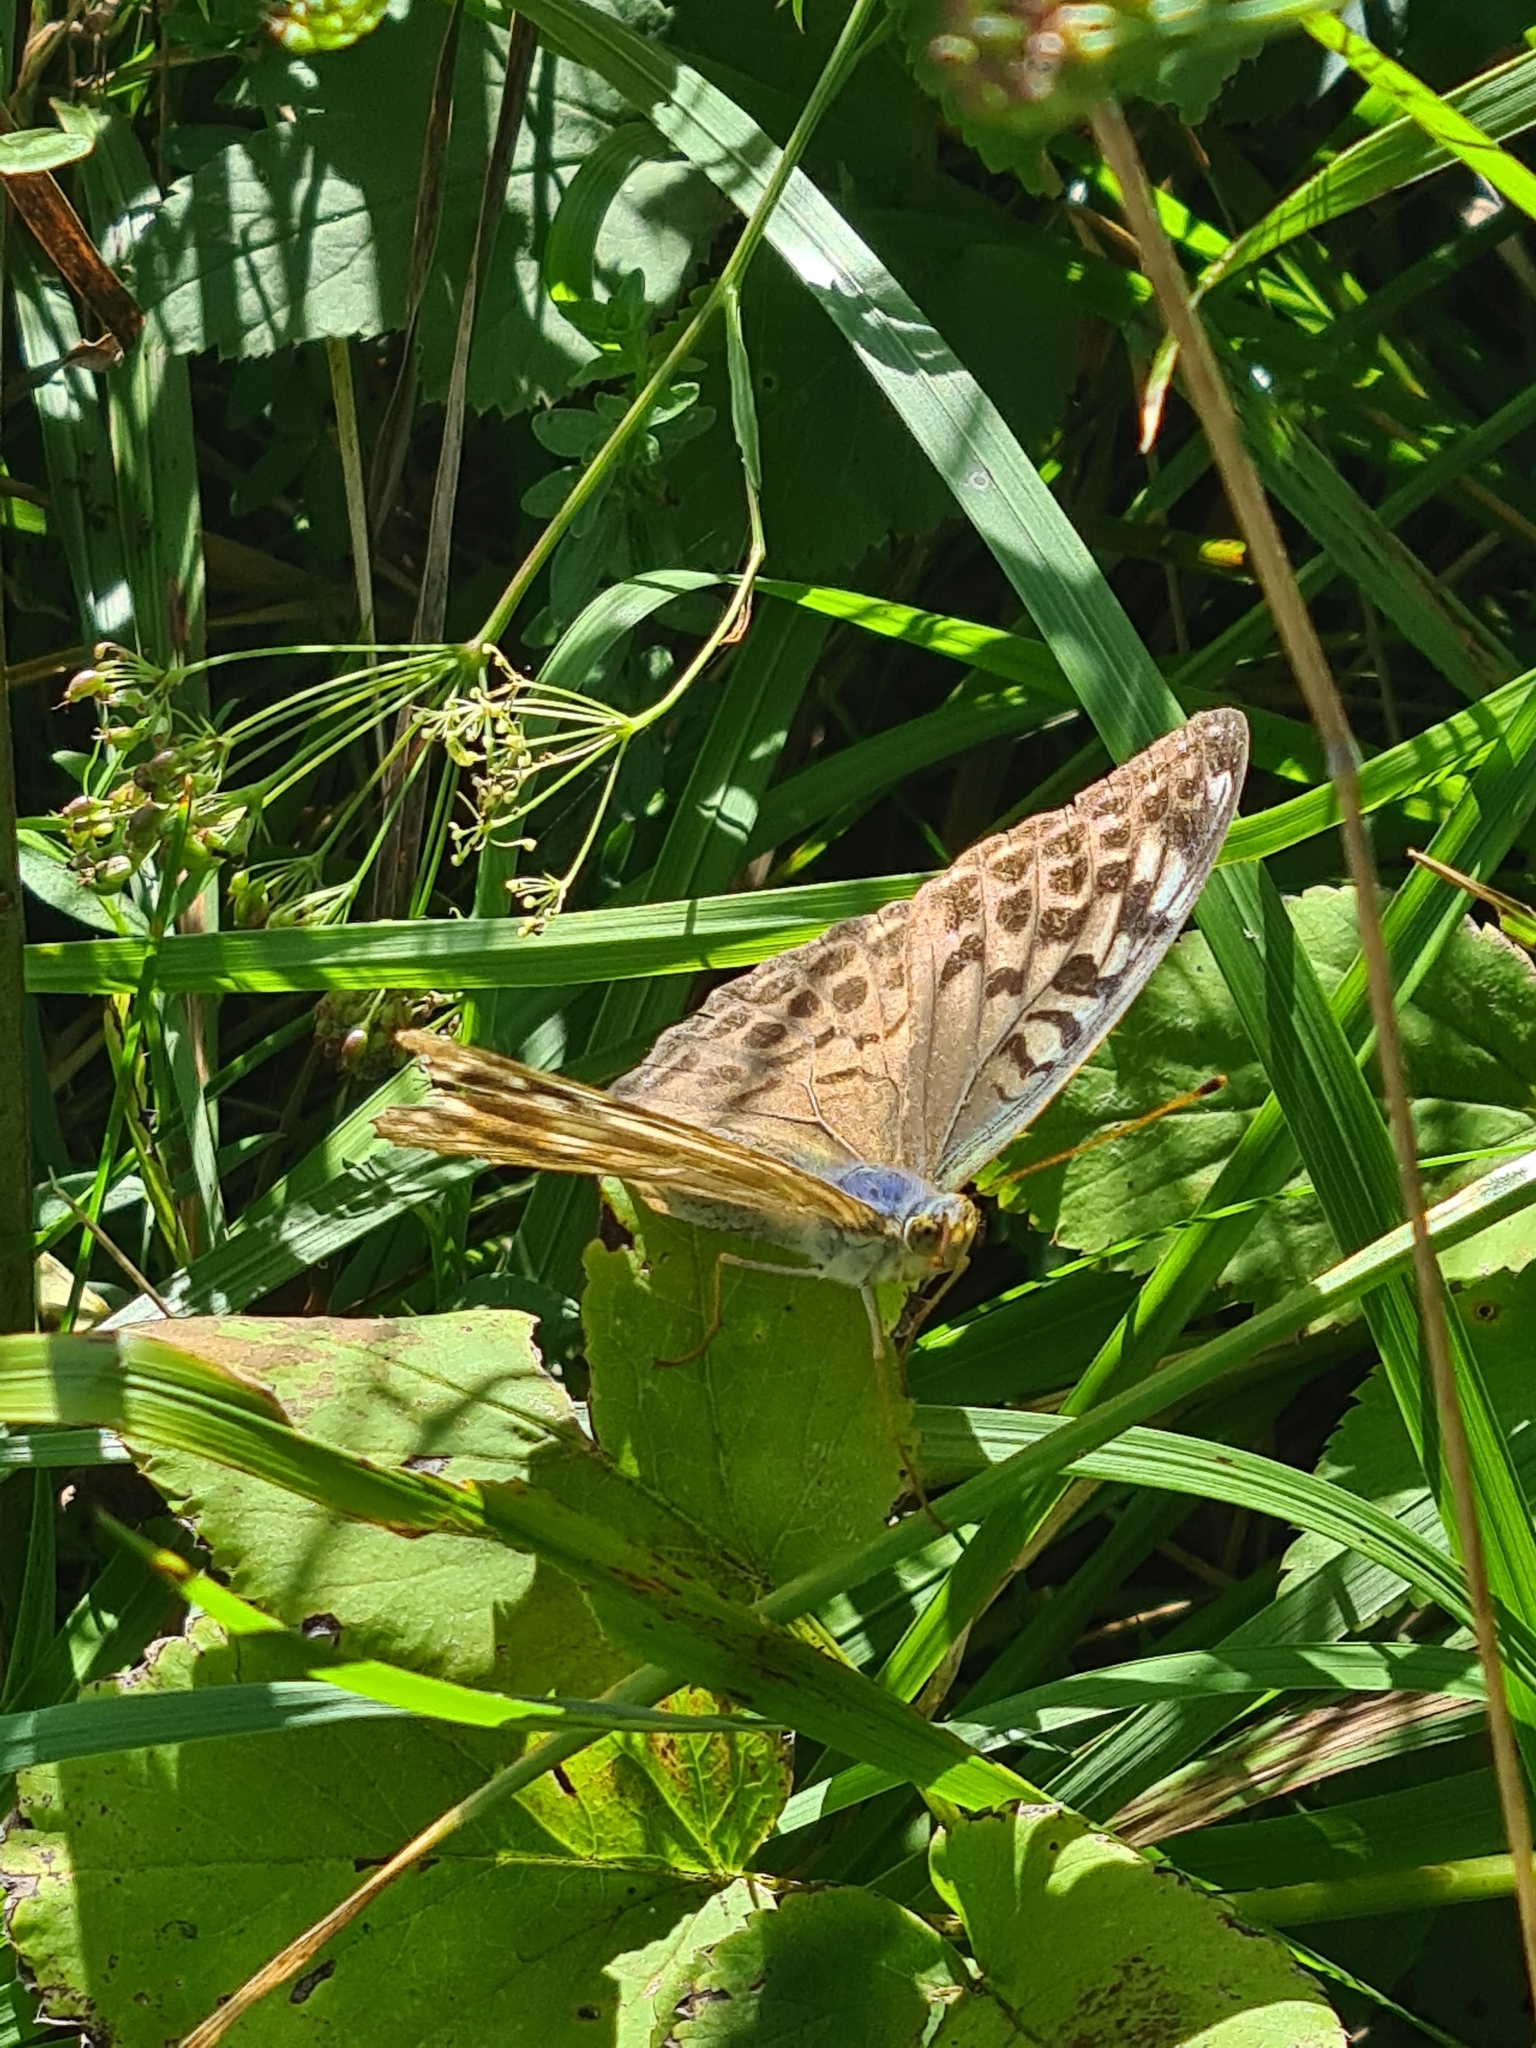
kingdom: Animalia
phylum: Arthropoda
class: Insecta
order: Lepidoptera
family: Nymphalidae
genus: Argynnis
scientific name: Argynnis paphia
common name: Silver-washed fritillary
